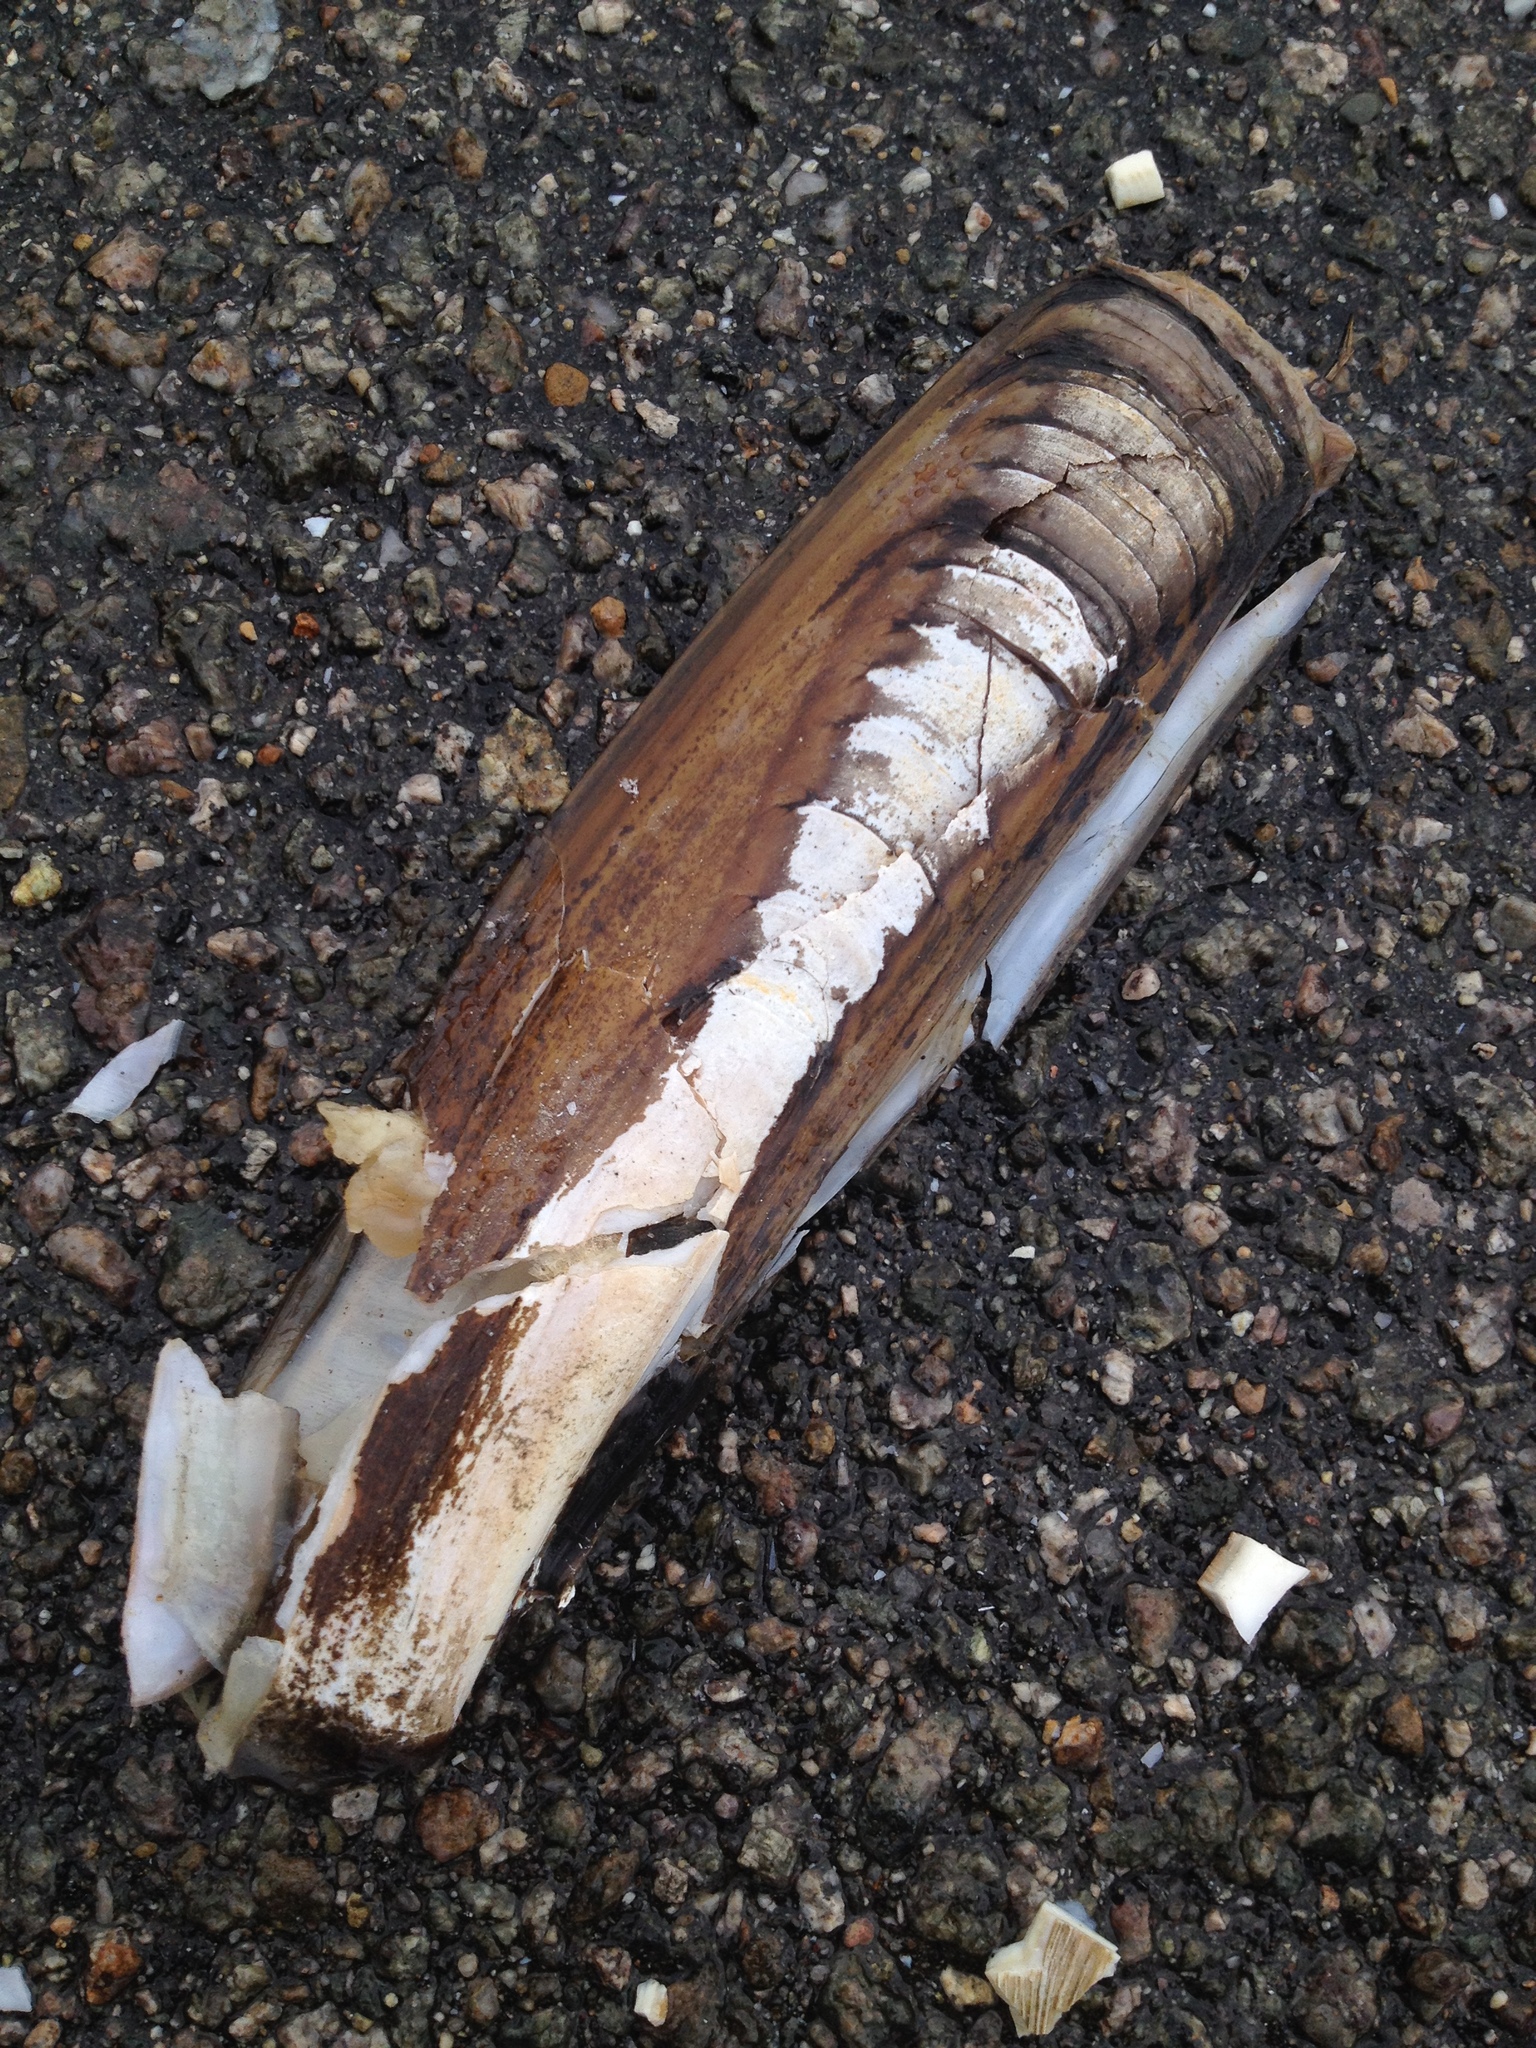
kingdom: Animalia
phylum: Mollusca
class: Bivalvia
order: Adapedonta
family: Pharidae
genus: Ensis
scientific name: Ensis leei
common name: American jack knife clam
